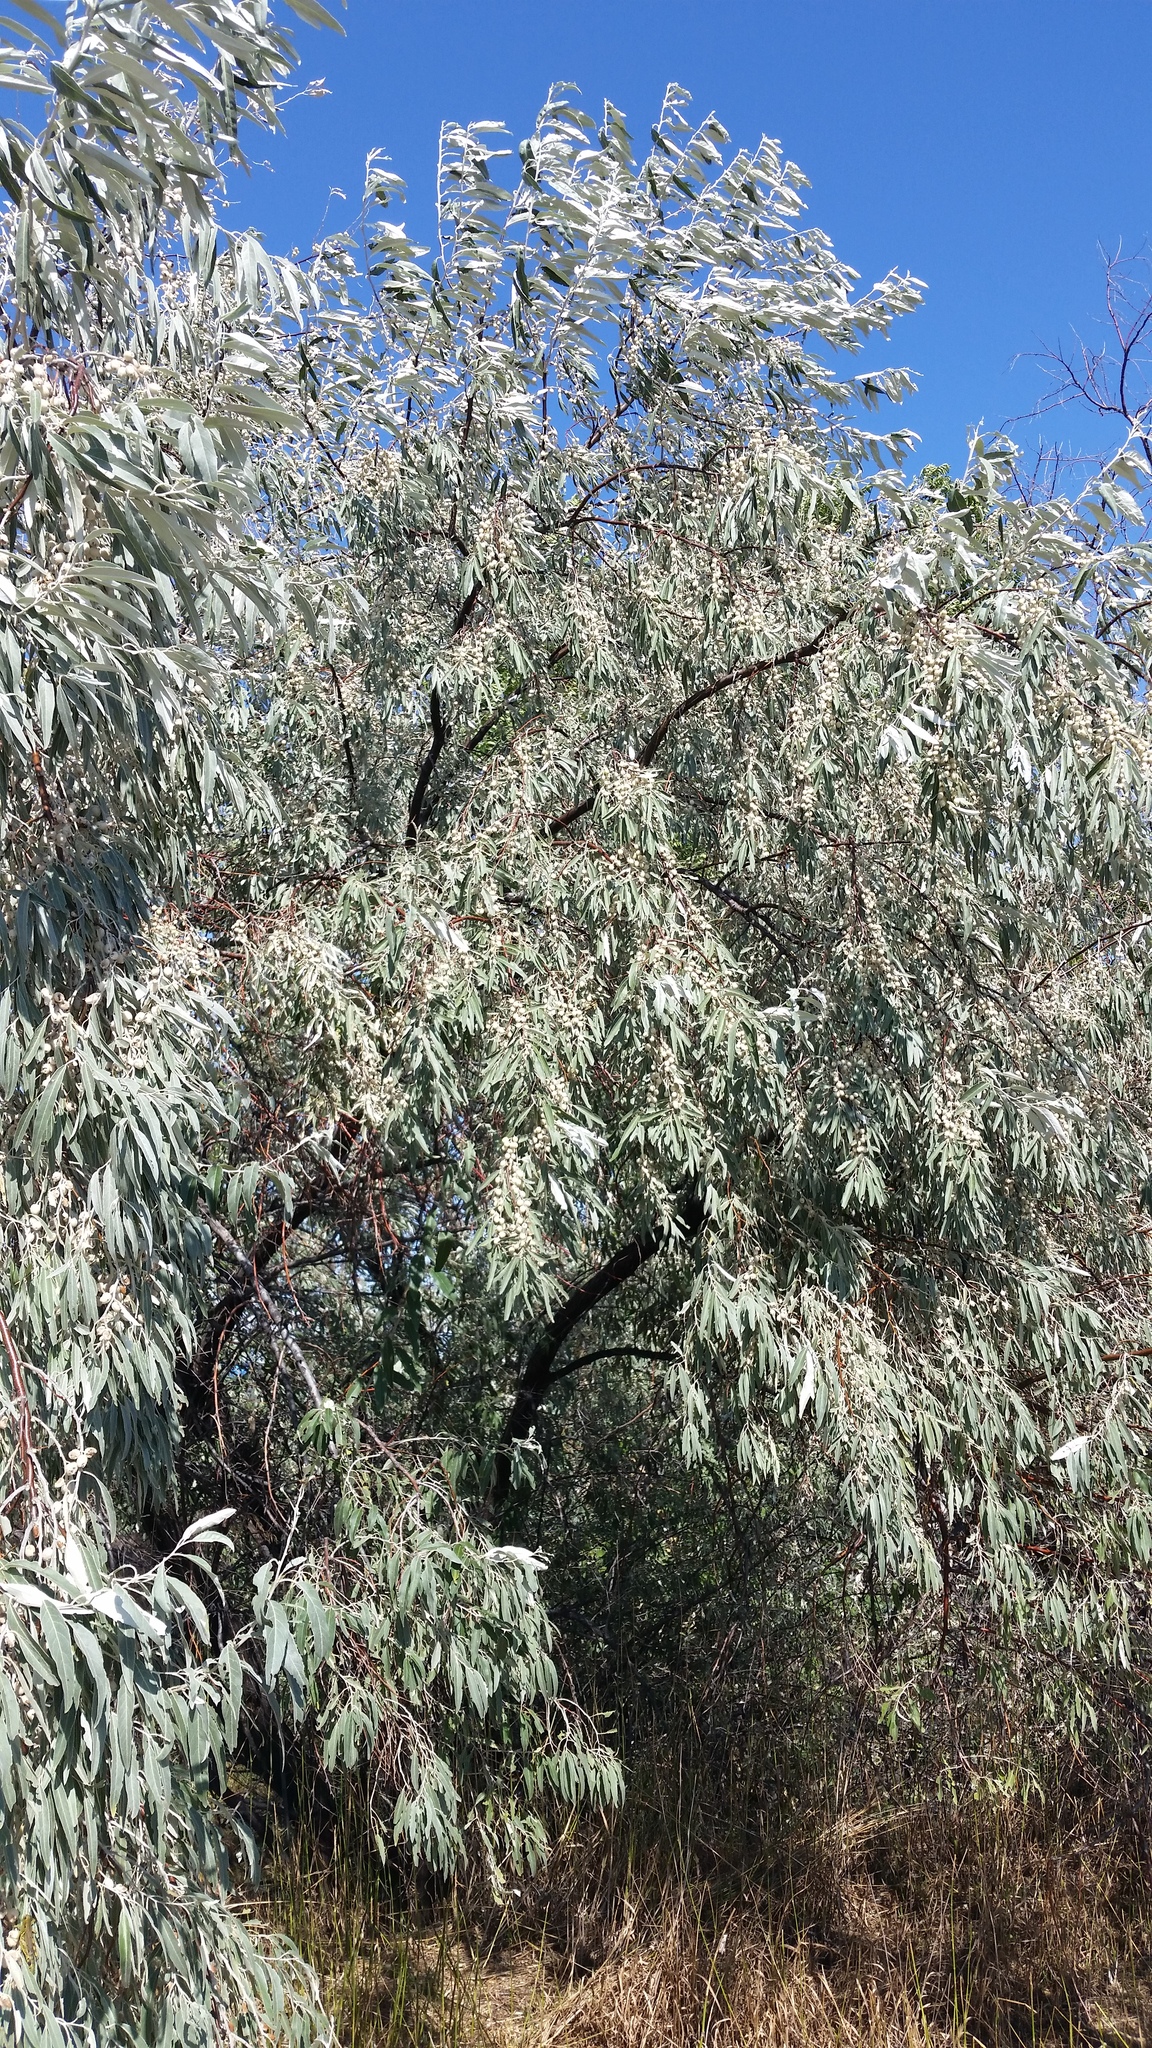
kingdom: Plantae
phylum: Tracheophyta
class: Magnoliopsida
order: Rosales
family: Elaeagnaceae
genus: Elaeagnus
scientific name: Elaeagnus angustifolia
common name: Russian olive
